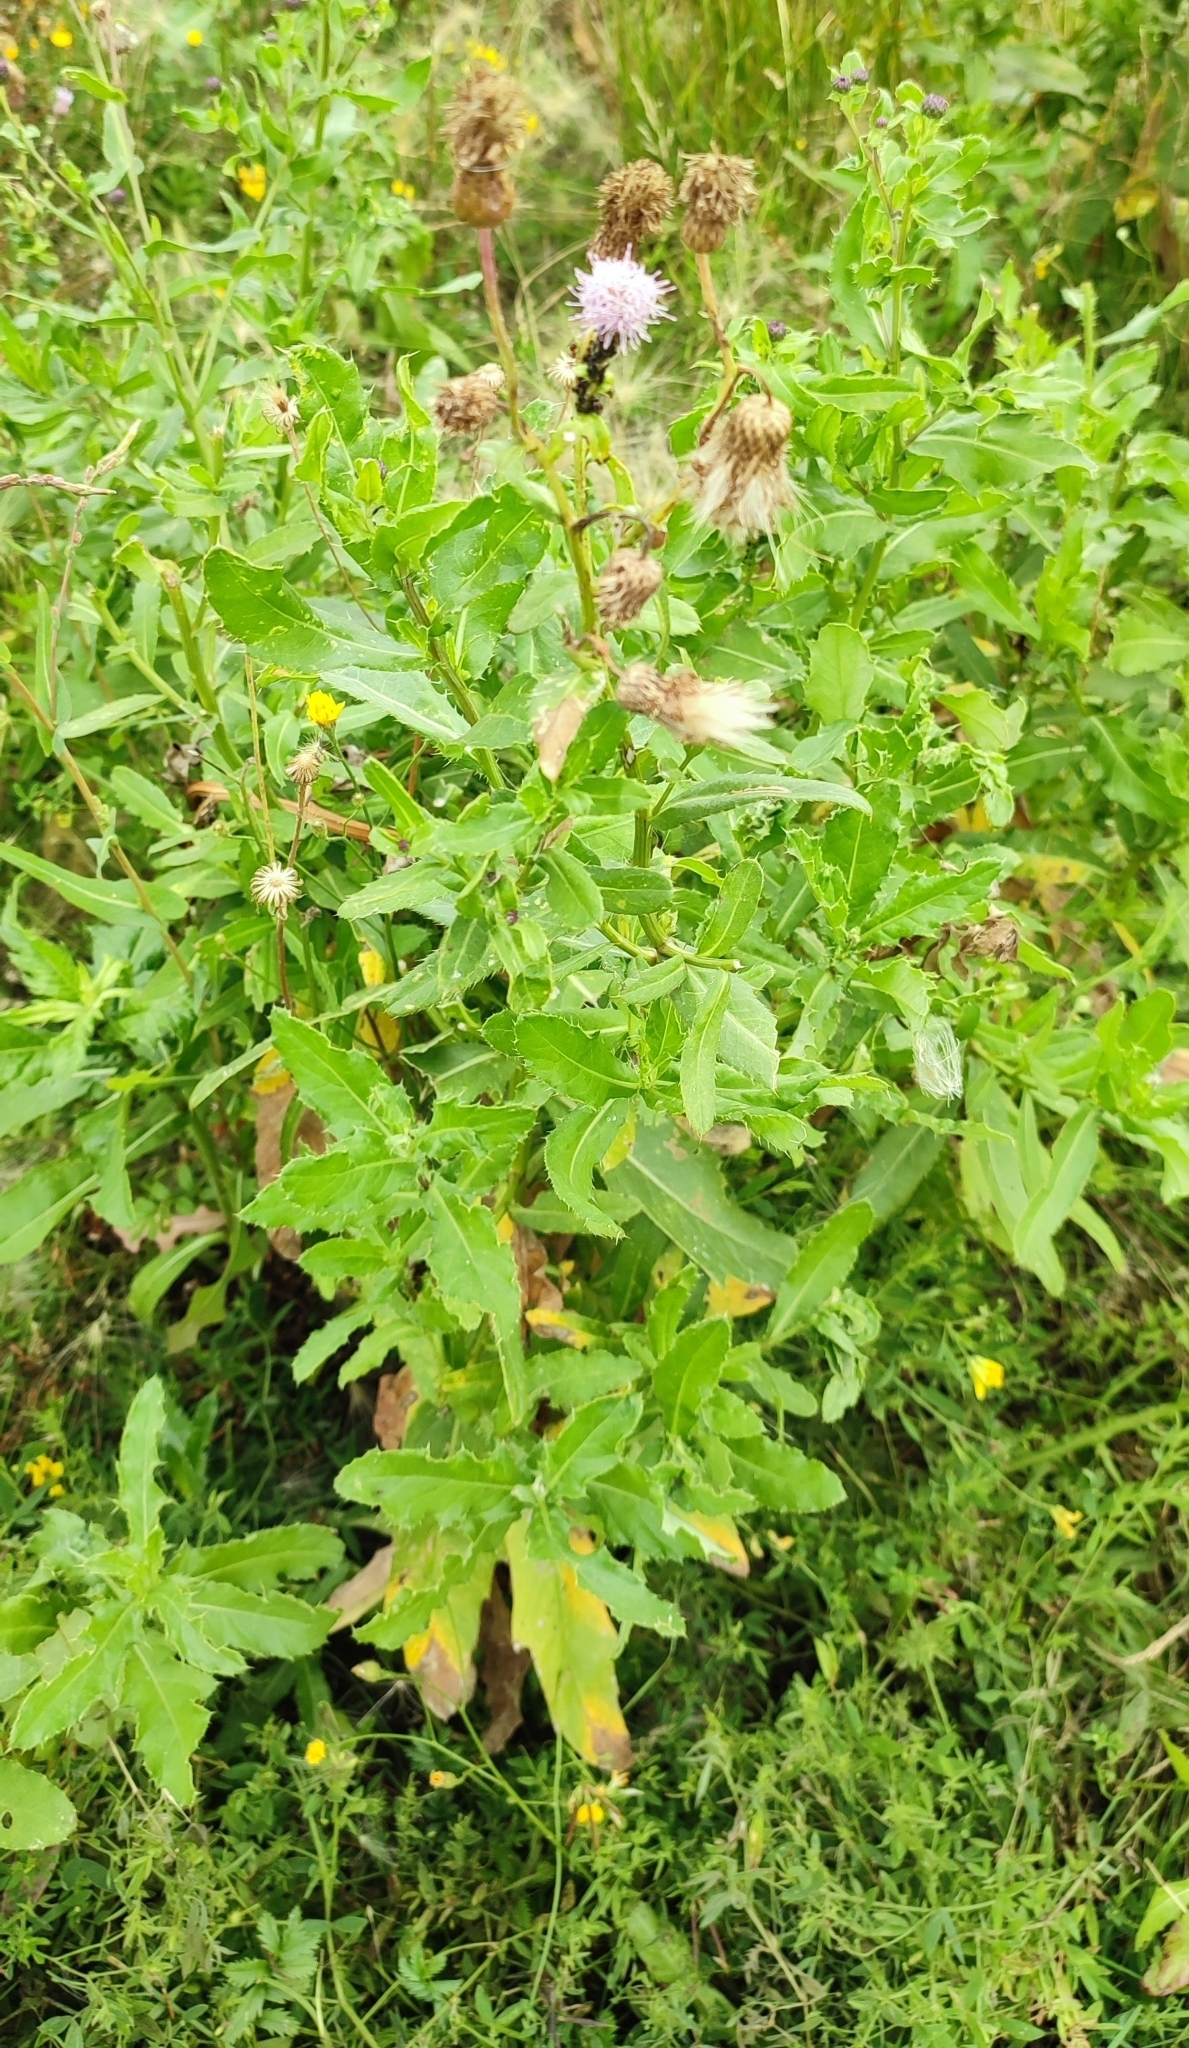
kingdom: Plantae
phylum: Tracheophyta
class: Magnoliopsida
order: Asterales
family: Asteraceae
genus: Cirsium
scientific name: Cirsium arvense
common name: Creeping thistle
